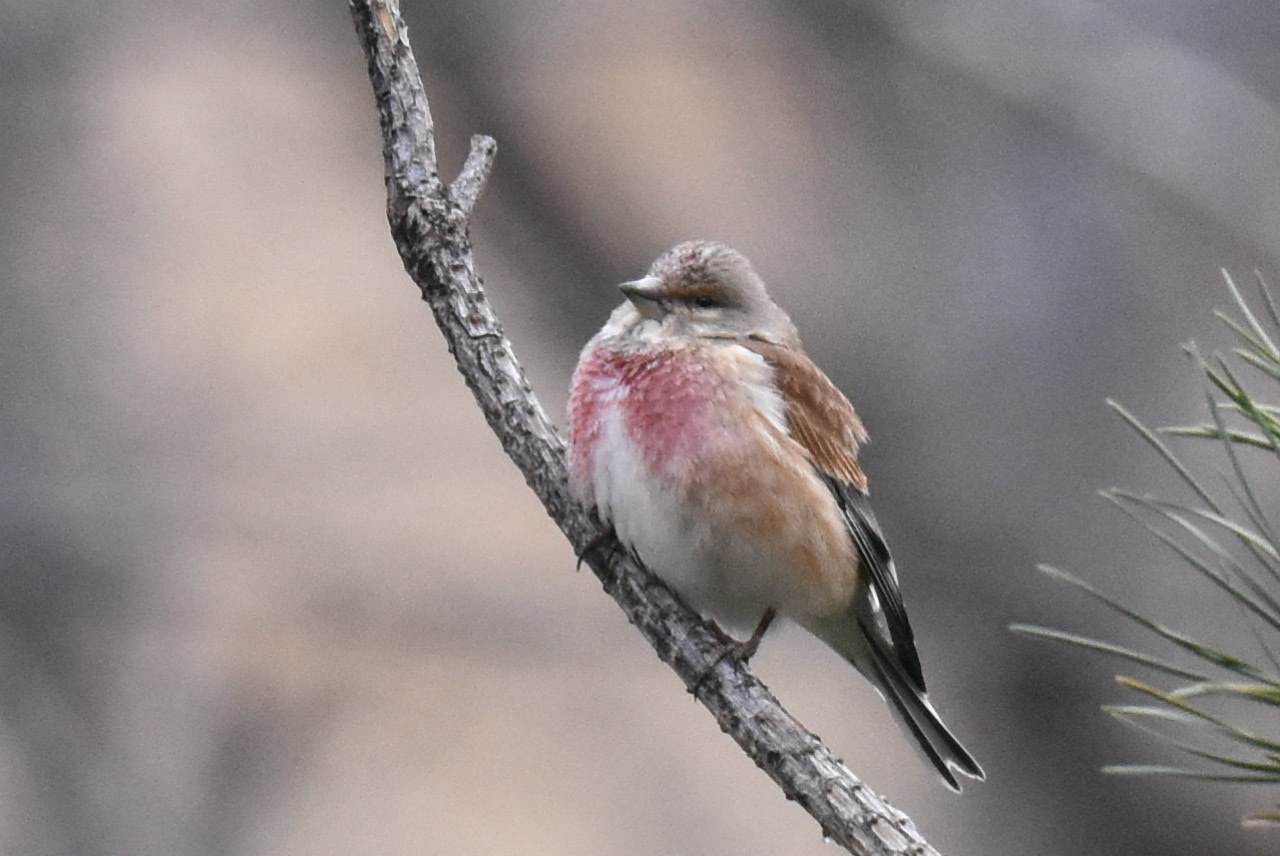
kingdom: Animalia
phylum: Chordata
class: Aves
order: Passeriformes
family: Fringillidae
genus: Linaria
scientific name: Linaria cannabina
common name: Common linnet
